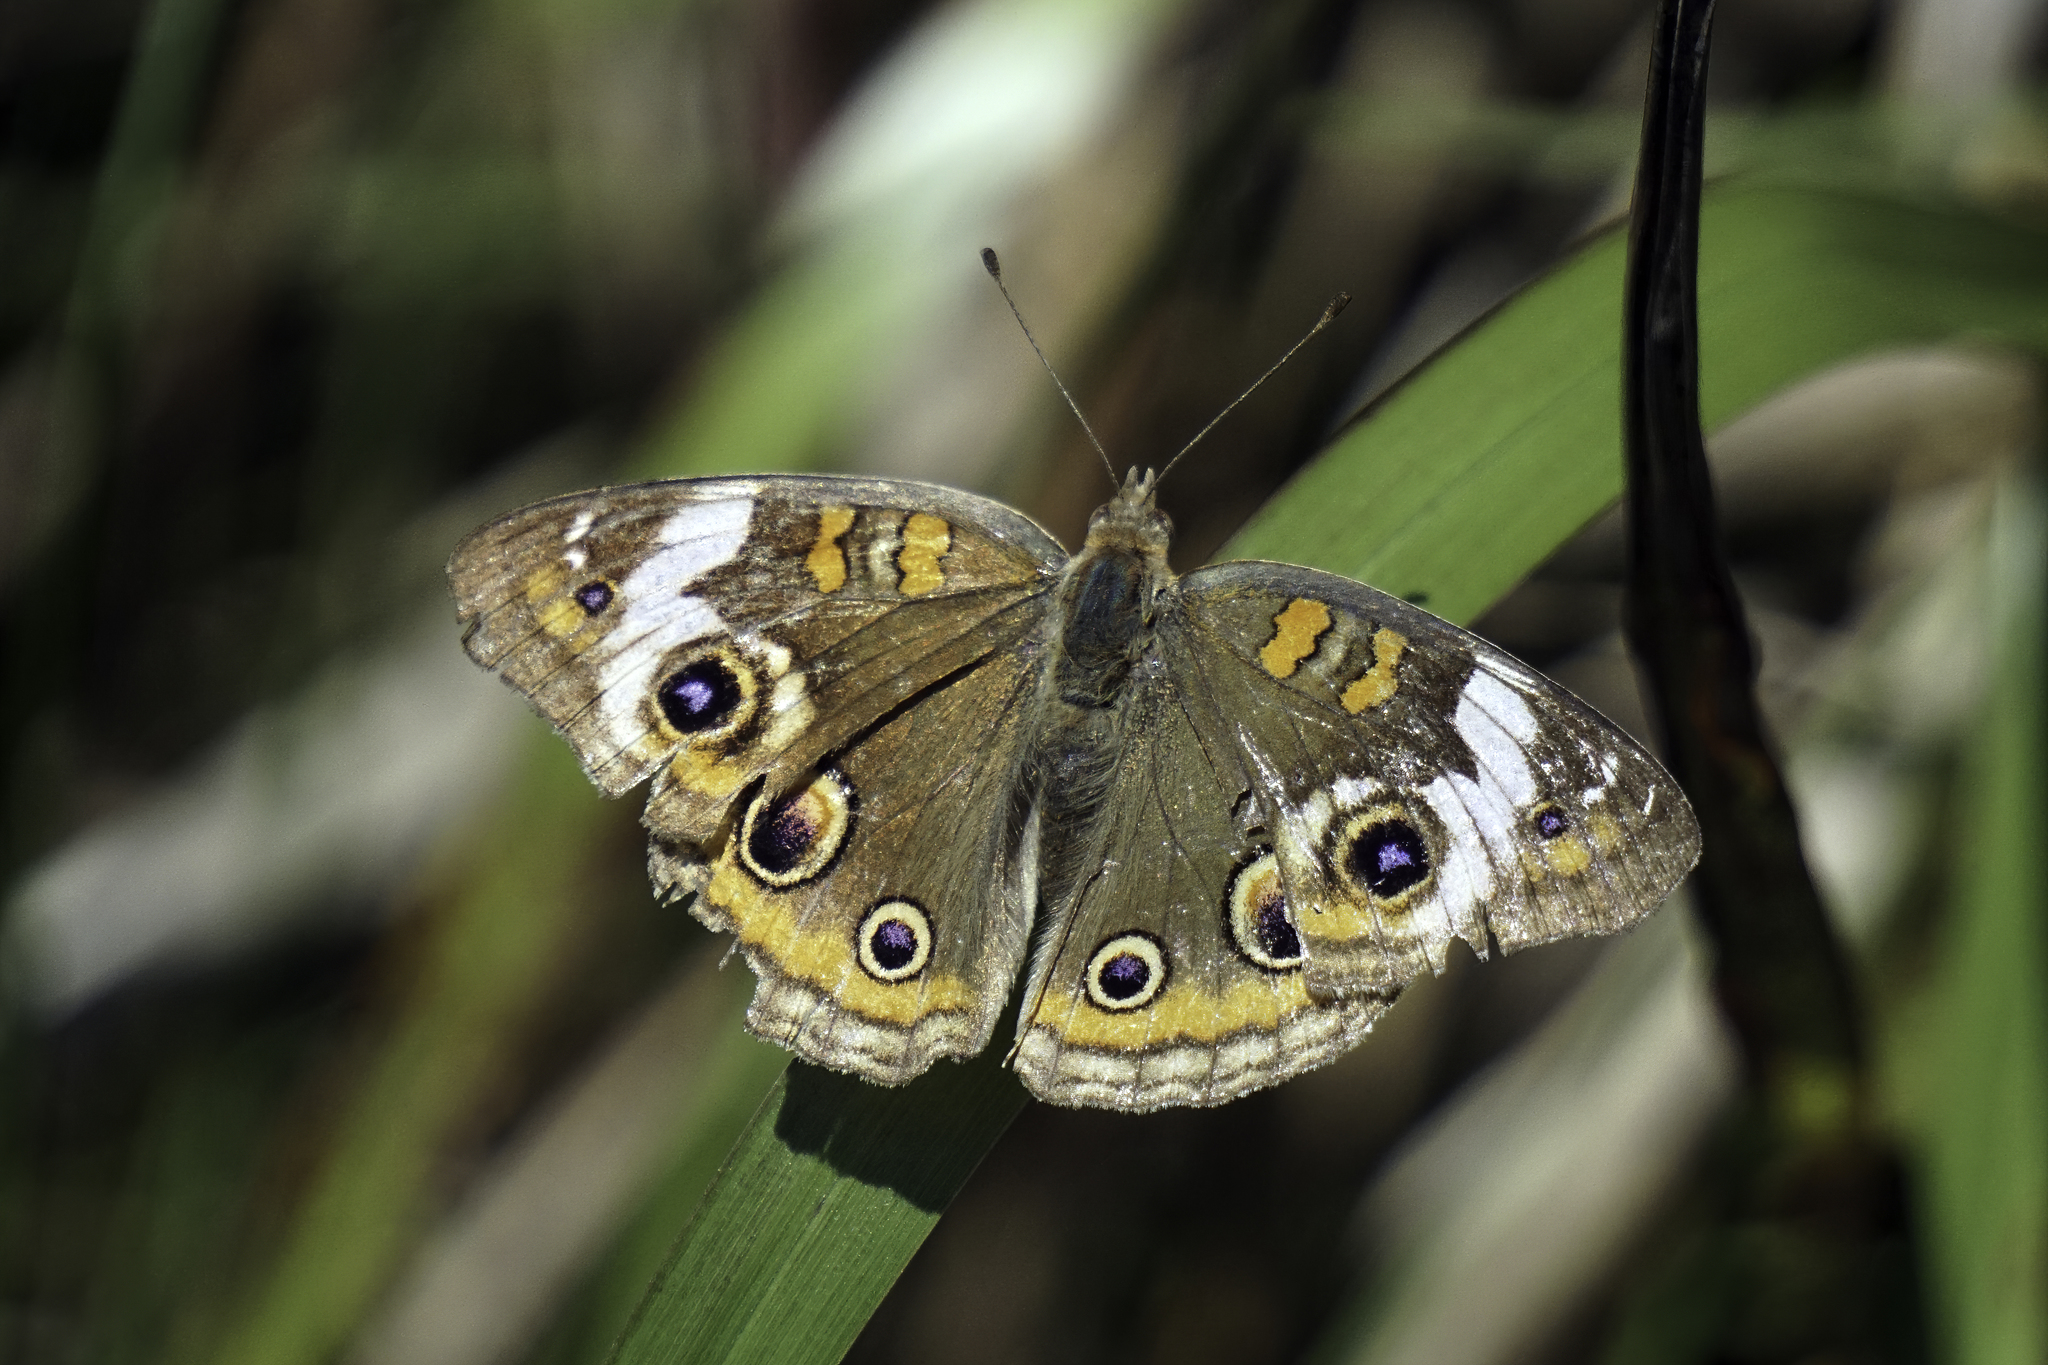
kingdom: Animalia
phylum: Arthropoda
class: Insecta
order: Lepidoptera
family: Nymphalidae
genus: Junonia
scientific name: Junonia coenia
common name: Common buckeye
